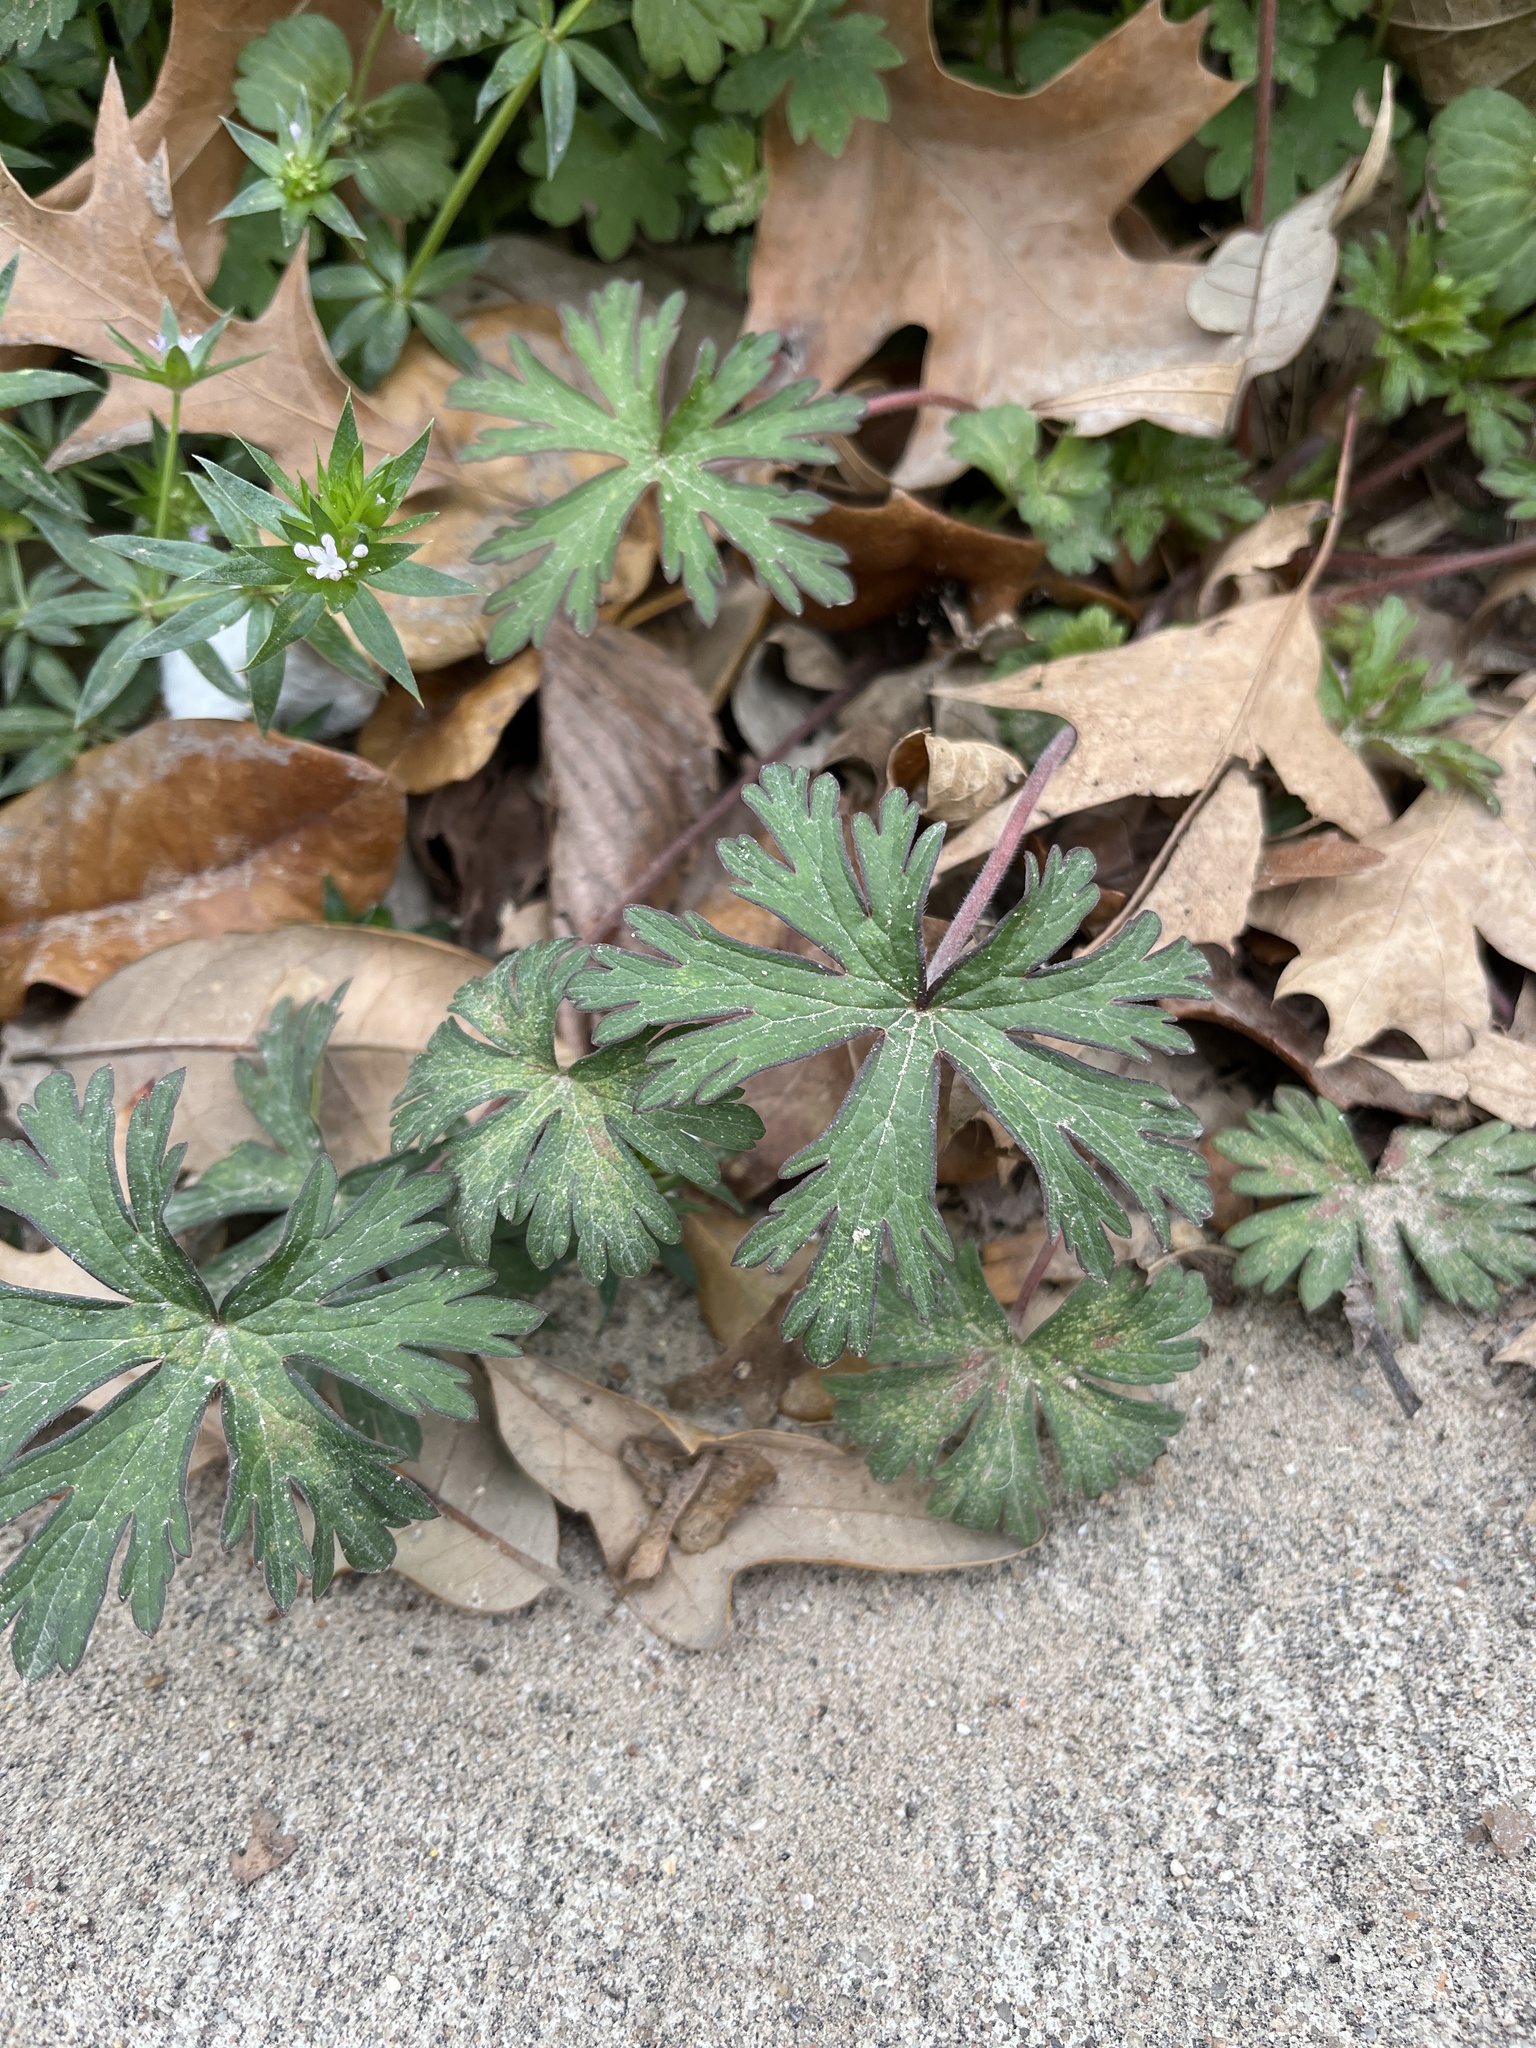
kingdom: Plantae
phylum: Tracheophyta
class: Magnoliopsida
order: Geraniales
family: Geraniaceae
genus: Geranium
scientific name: Geranium carolinianum
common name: Carolina crane's-bill
